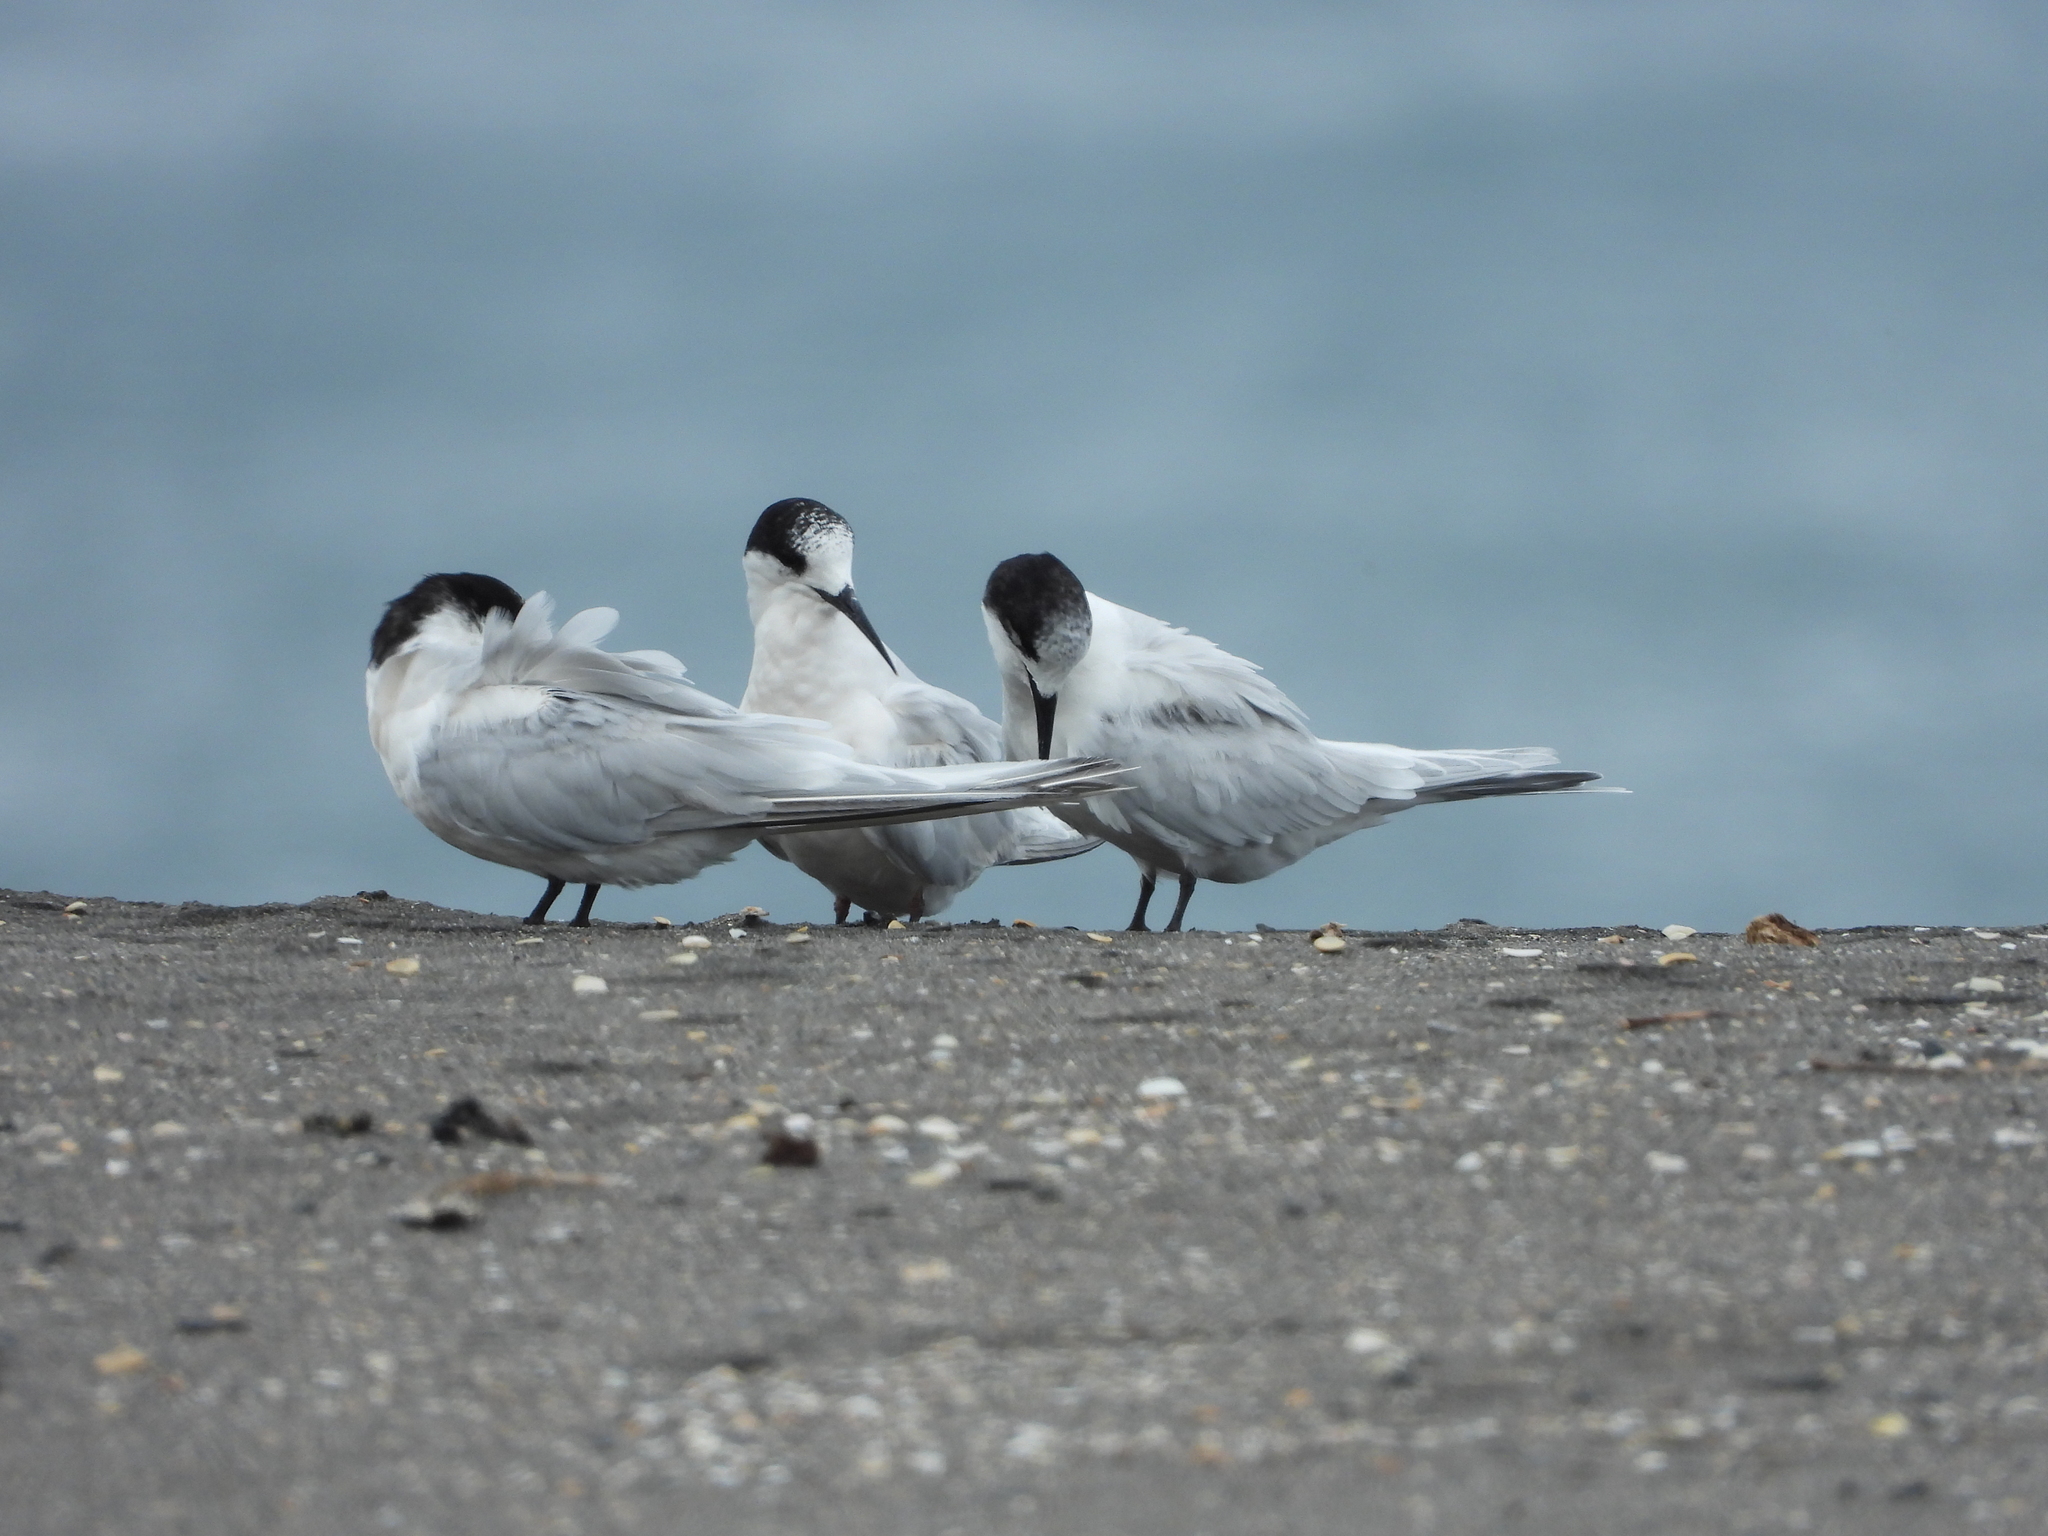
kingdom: Animalia
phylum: Chordata
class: Aves
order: Charadriiformes
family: Laridae
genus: Sterna
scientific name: Sterna striata
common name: White-fronted tern
